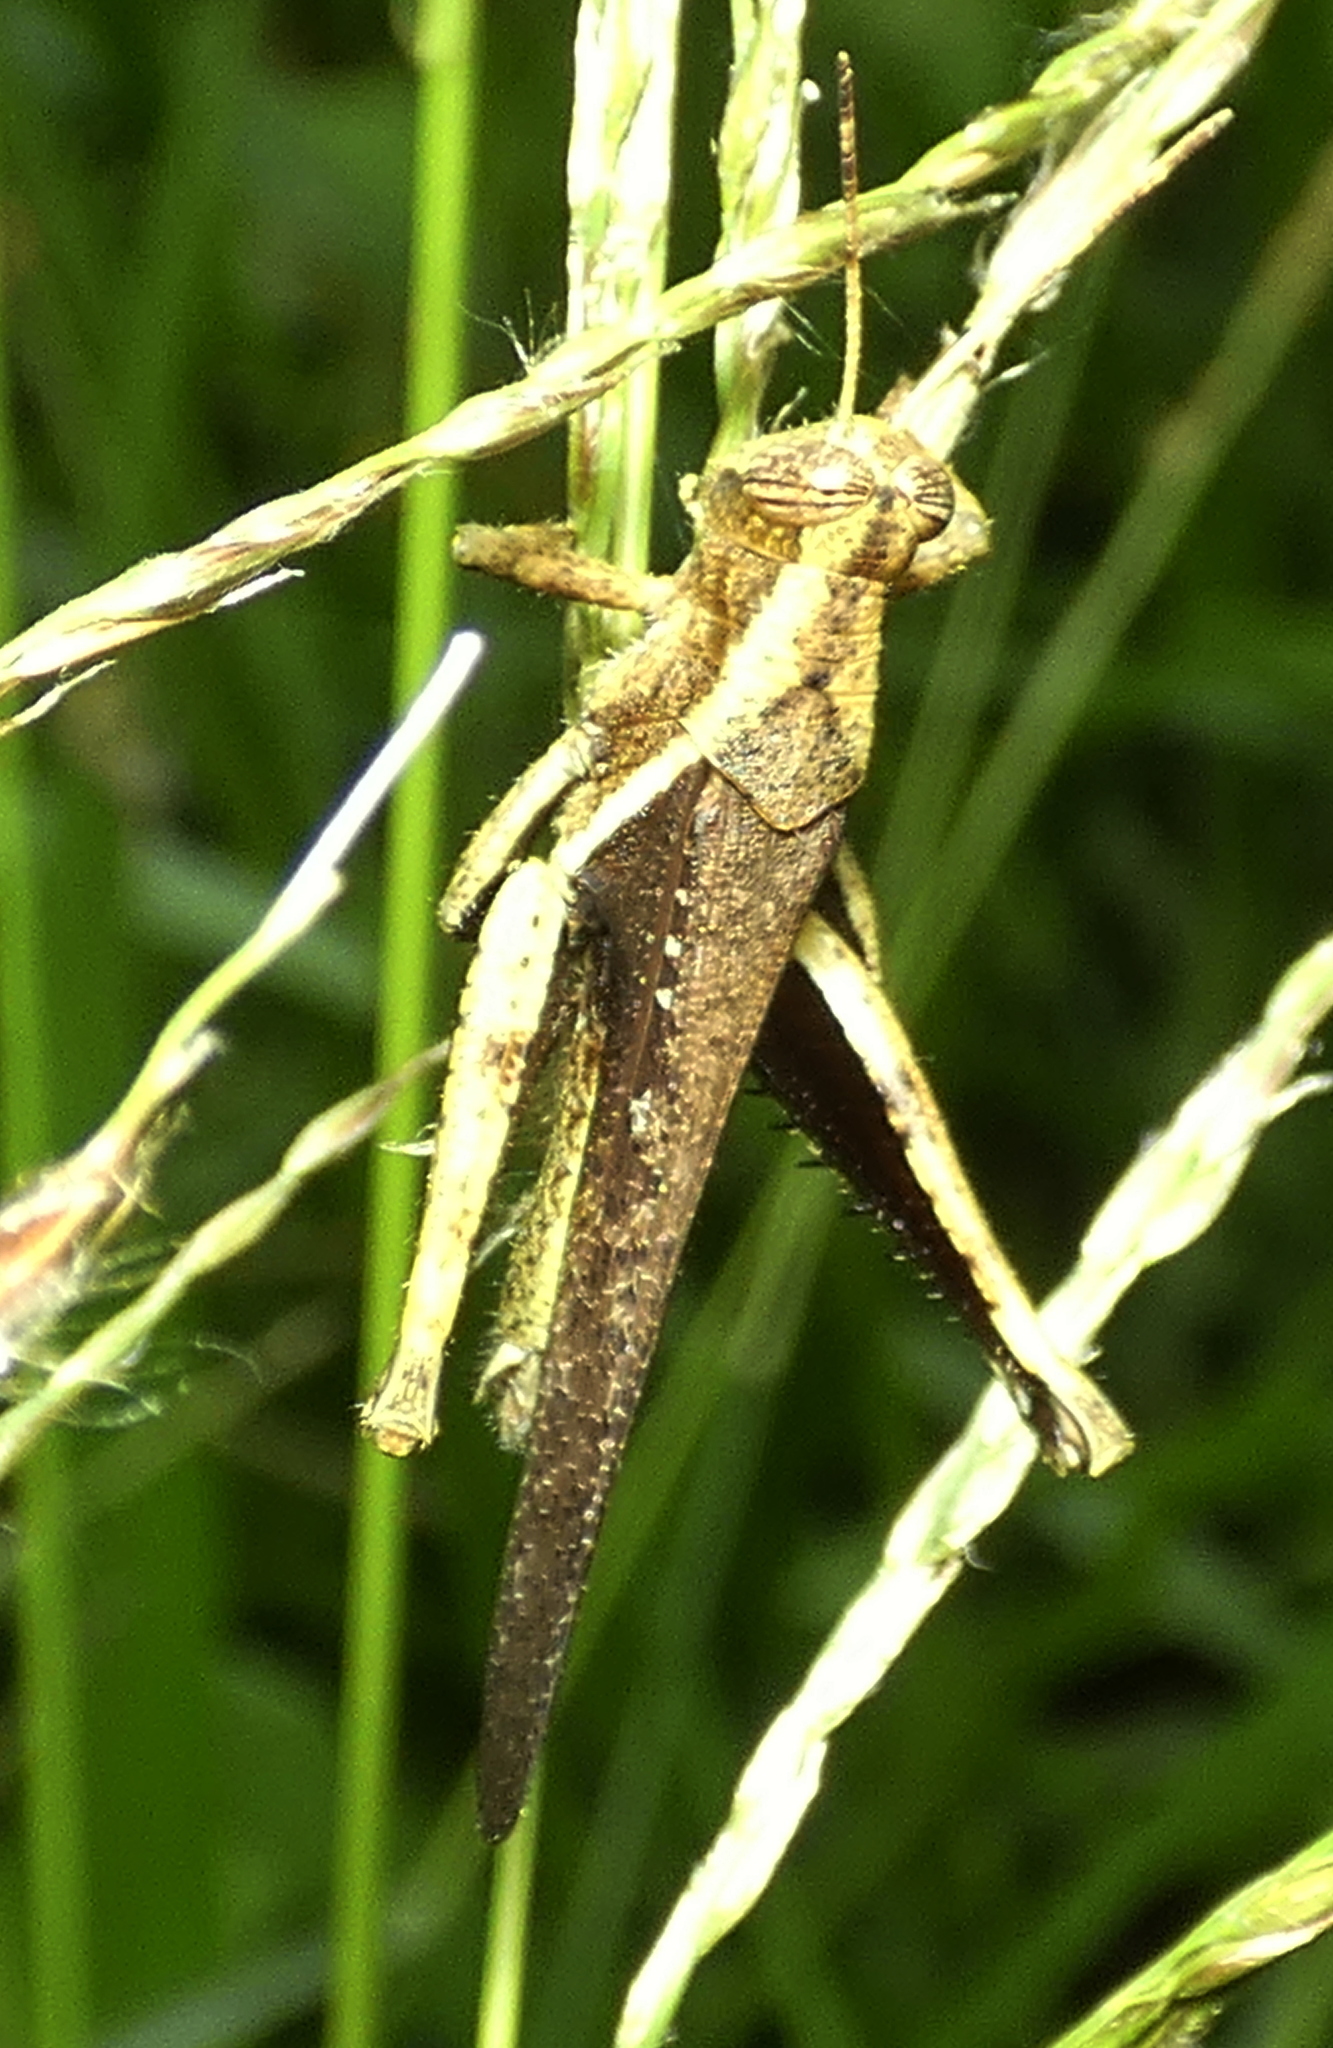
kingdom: Animalia
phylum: Arthropoda
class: Insecta
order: Orthoptera
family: Acrididae
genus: Abracris
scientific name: Abracris flavolineata
